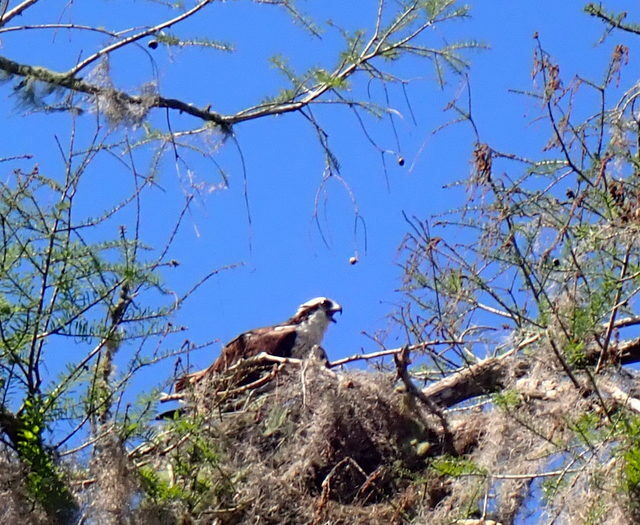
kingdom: Animalia
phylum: Chordata
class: Aves
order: Accipitriformes
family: Pandionidae
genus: Pandion
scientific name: Pandion haliaetus
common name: Osprey
